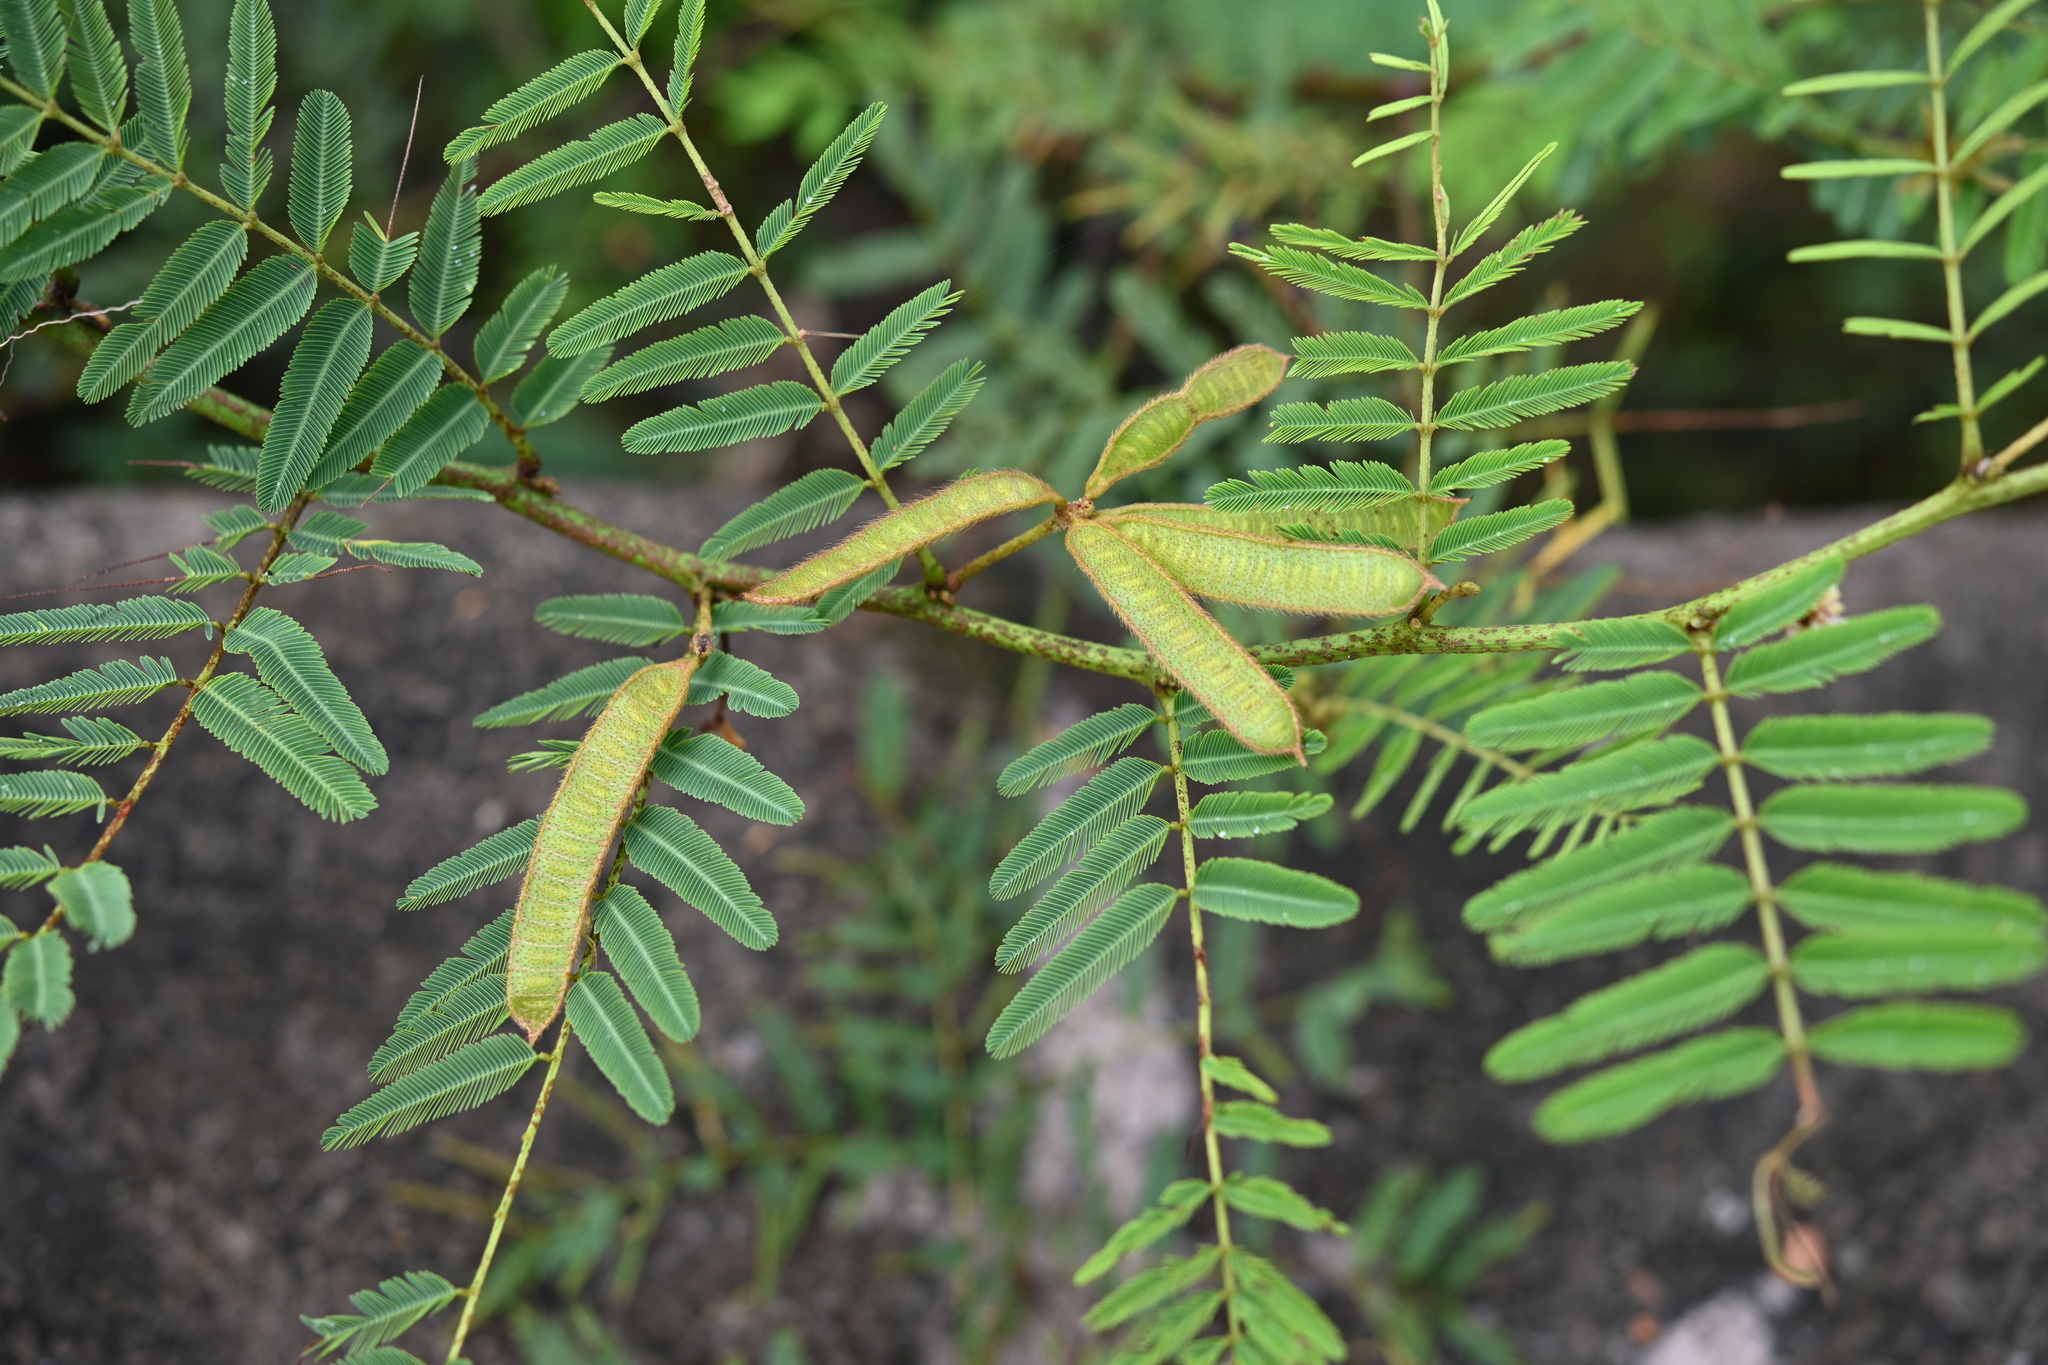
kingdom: Plantae
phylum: Tracheophyta
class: Magnoliopsida
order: Fabales
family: Fabaceae
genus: Mimosa
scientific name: Mimosa pigra
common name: Black mimosa
